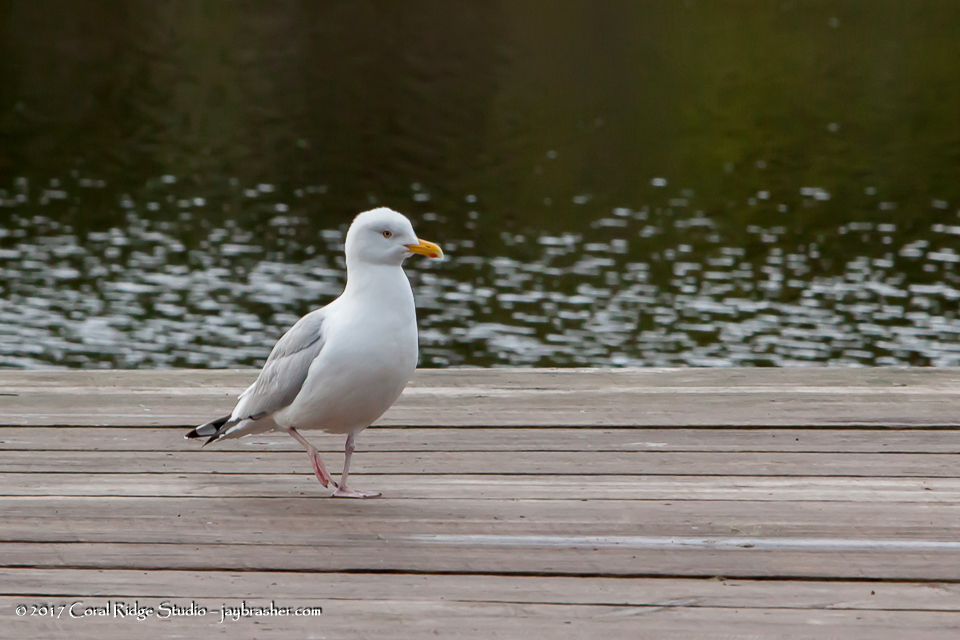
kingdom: Animalia
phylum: Chordata
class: Aves
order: Charadriiformes
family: Laridae
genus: Larus
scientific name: Larus argentatus
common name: Herring gull
